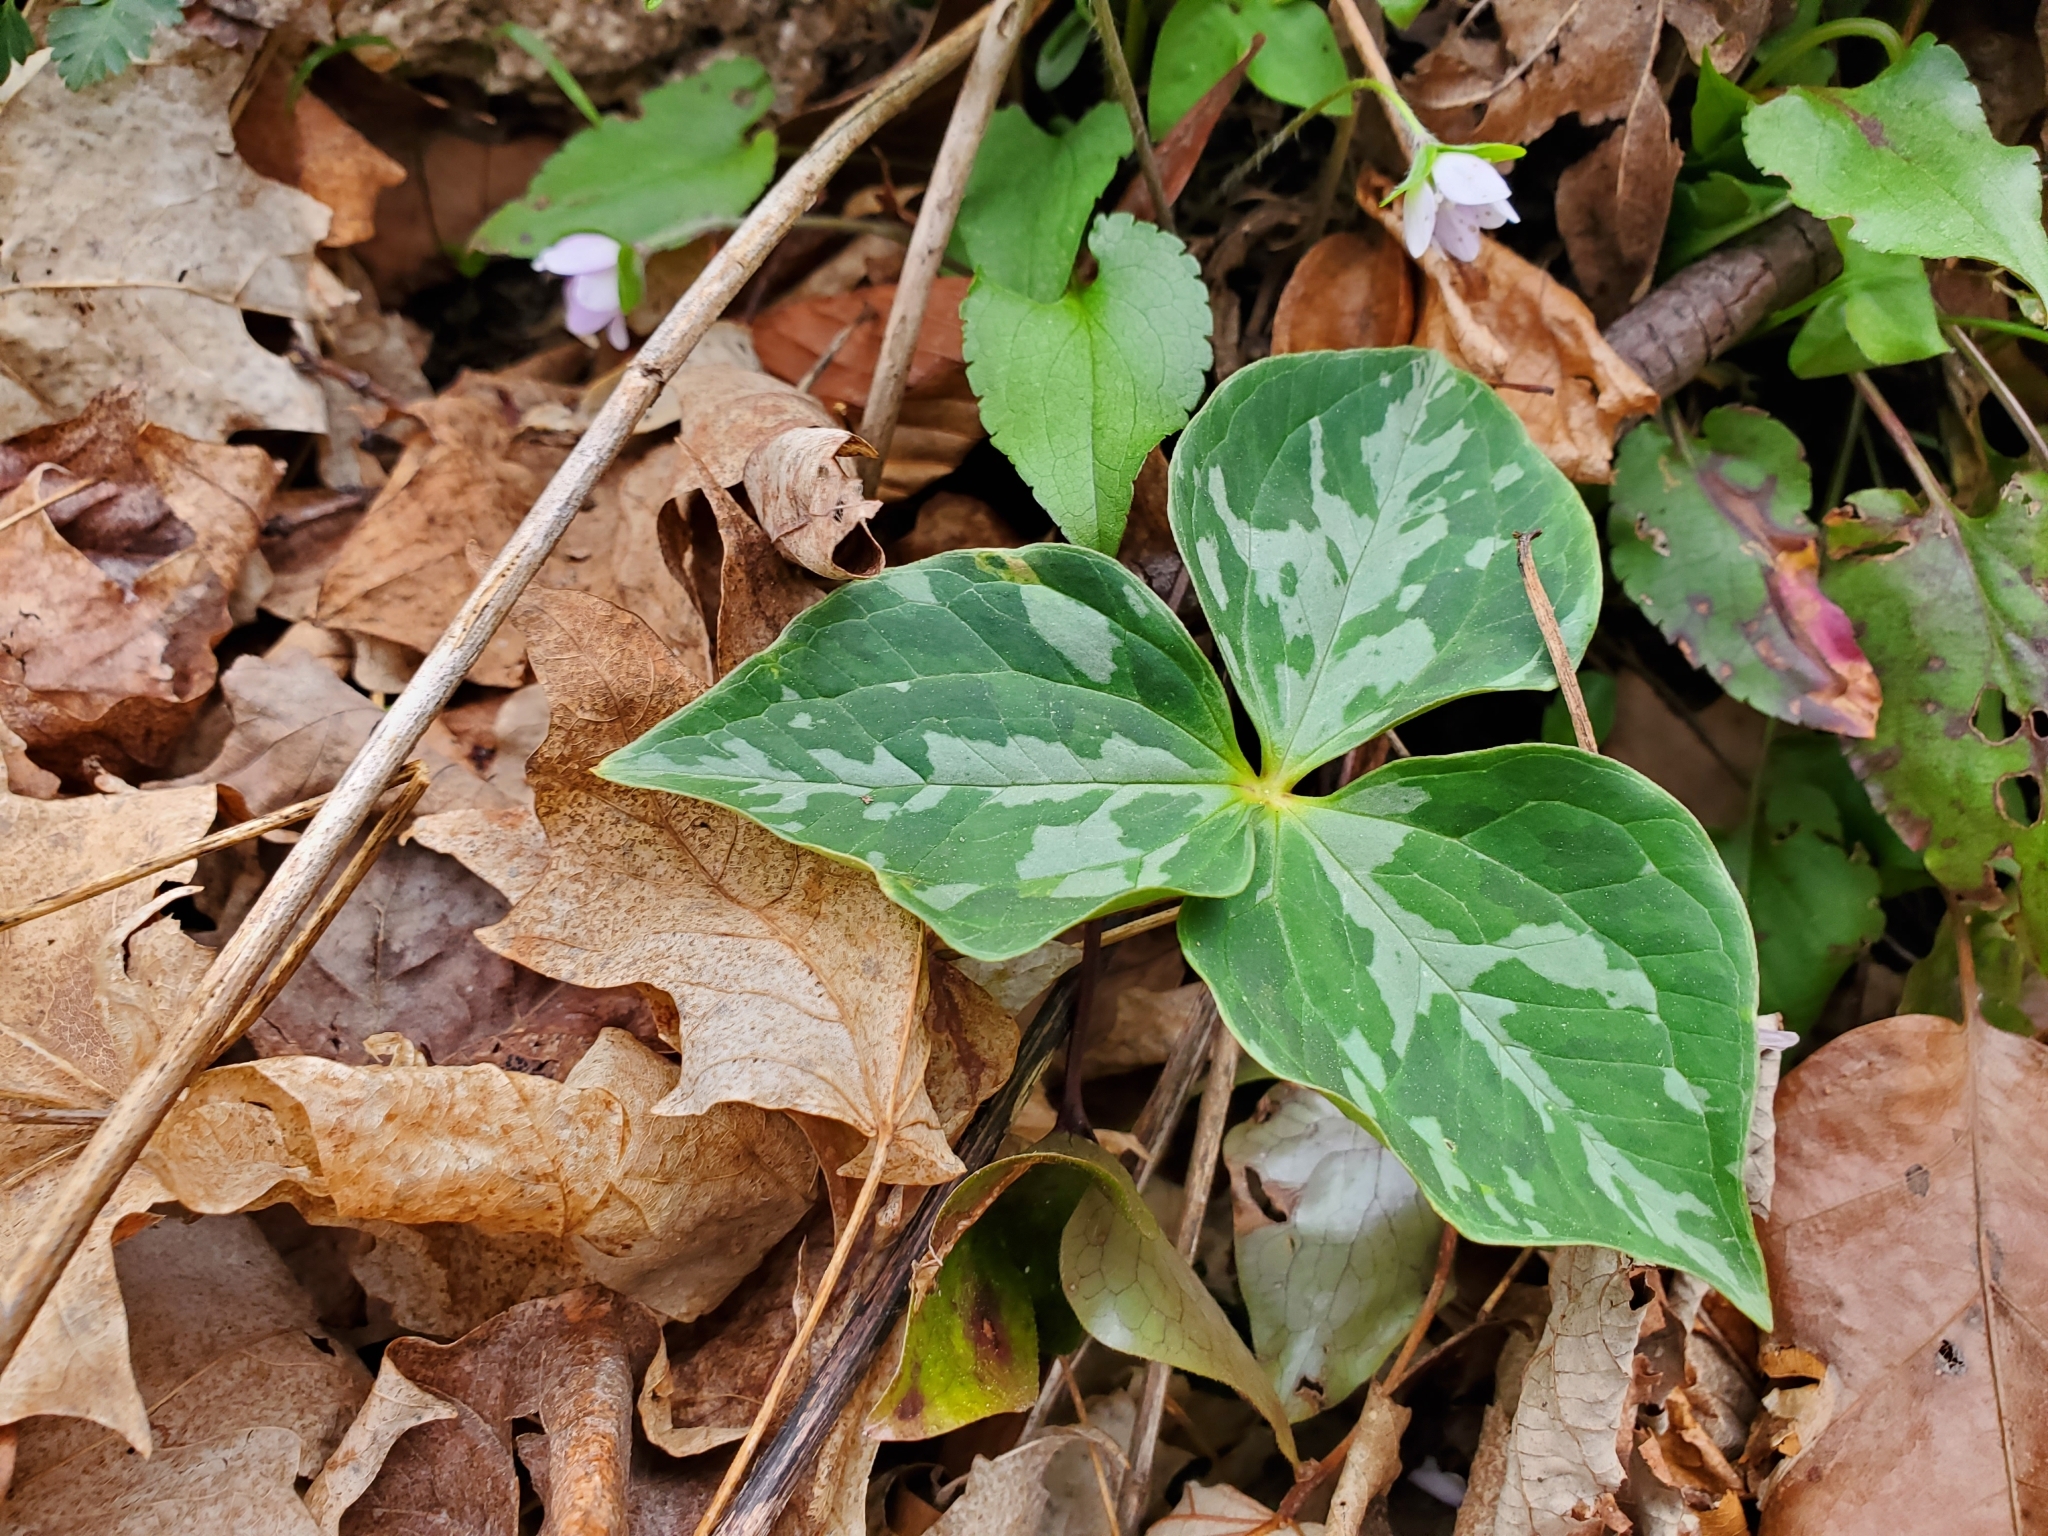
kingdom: Plantae
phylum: Tracheophyta
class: Liliopsida
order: Liliales
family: Melanthiaceae
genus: Trillium
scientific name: Trillium cuneatum
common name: Cuneate trillium
